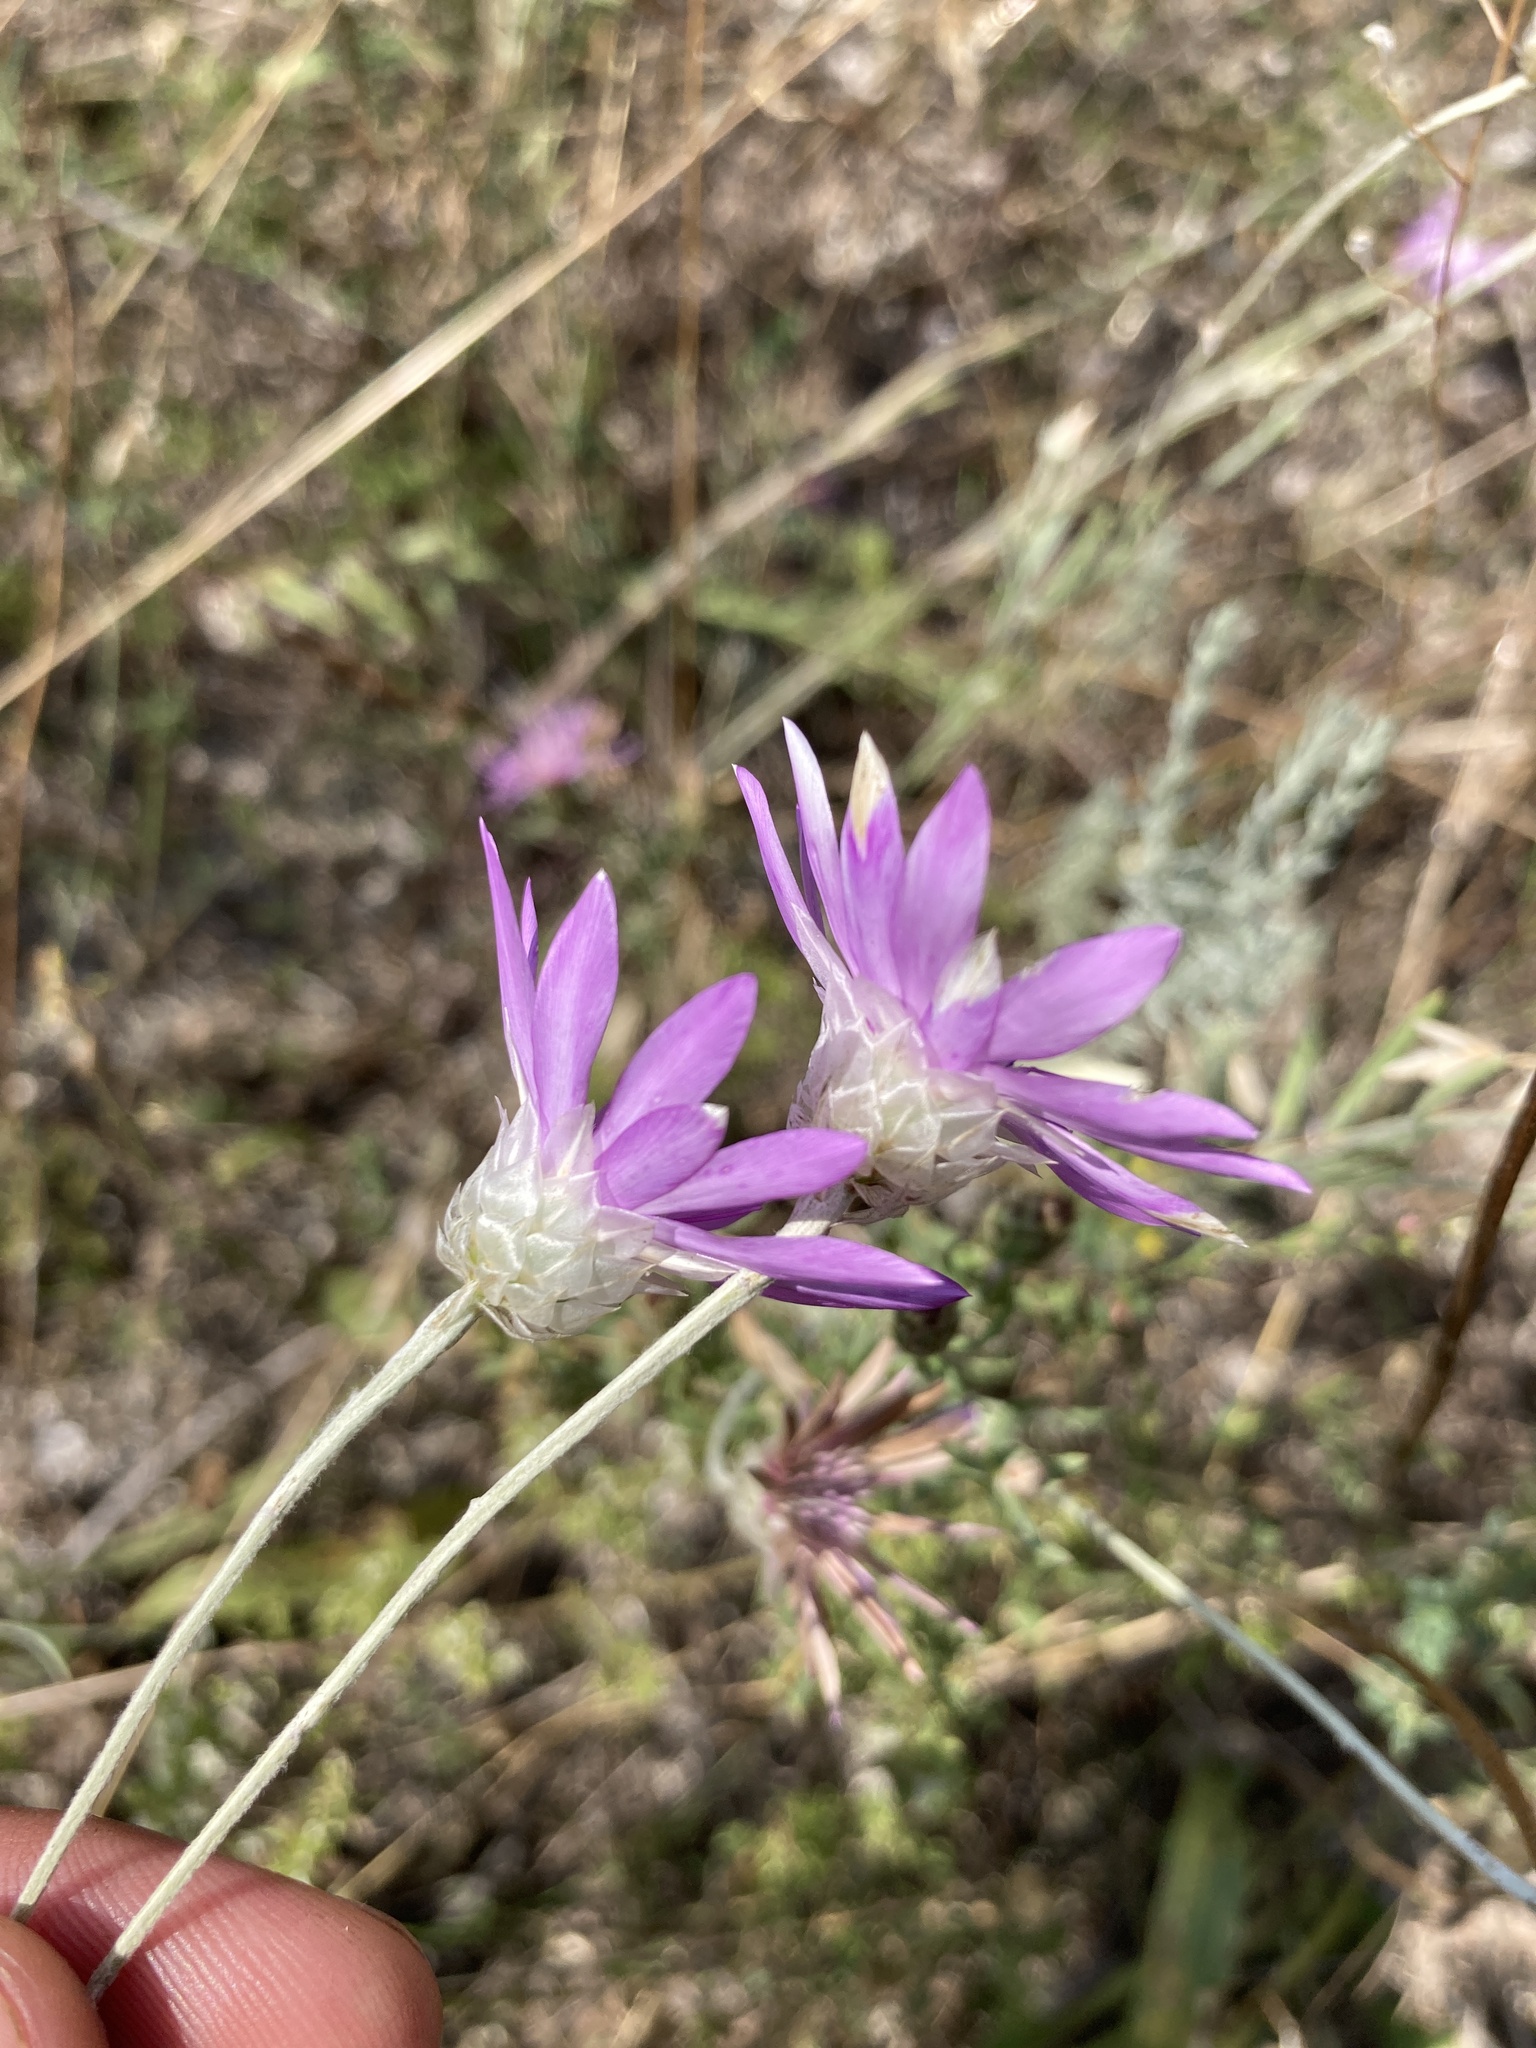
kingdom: Plantae
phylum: Tracheophyta
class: Magnoliopsida
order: Asterales
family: Asteraceae
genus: Xeranthemum
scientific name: Xeranthemum annuum
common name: Immortelle
